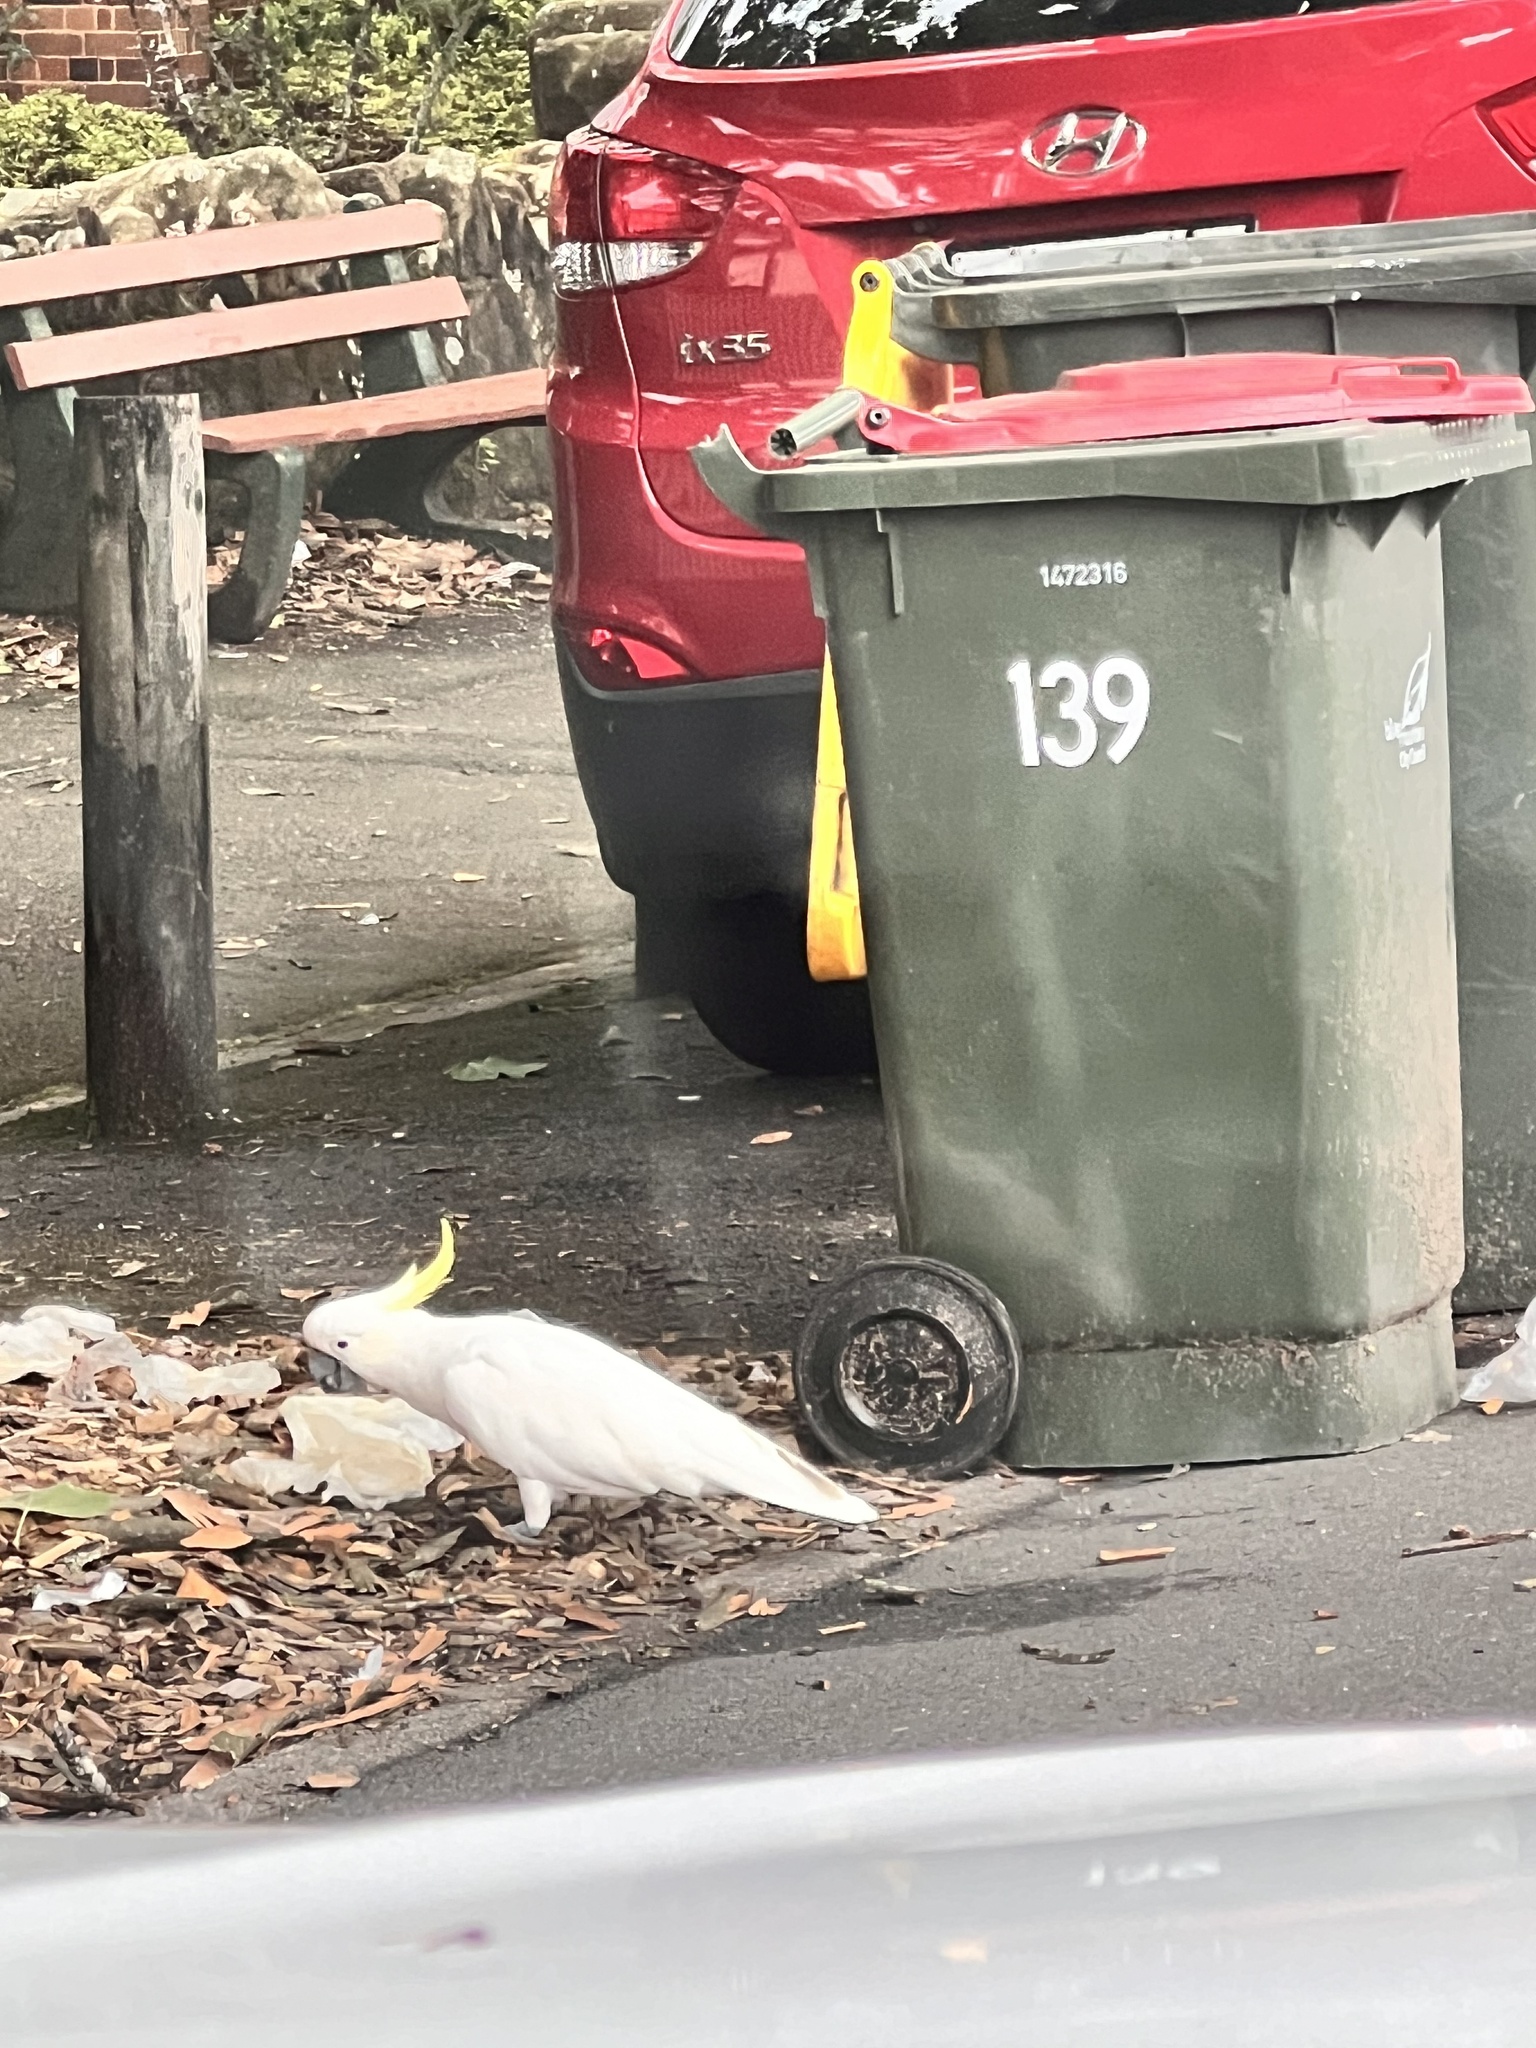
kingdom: Animalia
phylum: Chordata
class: Aves
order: Psittaciformes
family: Psittacidae
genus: Cacatua
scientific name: Cacatua galerita
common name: Sulphur-crested cockatoo
